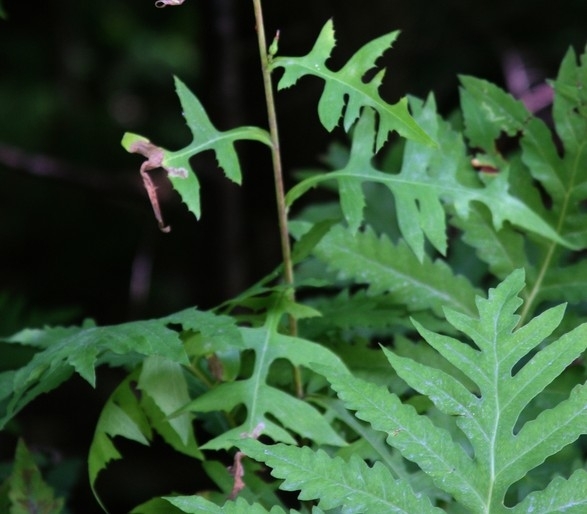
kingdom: Plantae
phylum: Tracheophyta
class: Polypodiopsida
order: Polypodiales
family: Onocleaceae
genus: Onoclea
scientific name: Onoclea sensibilis
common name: Sensitive fern
